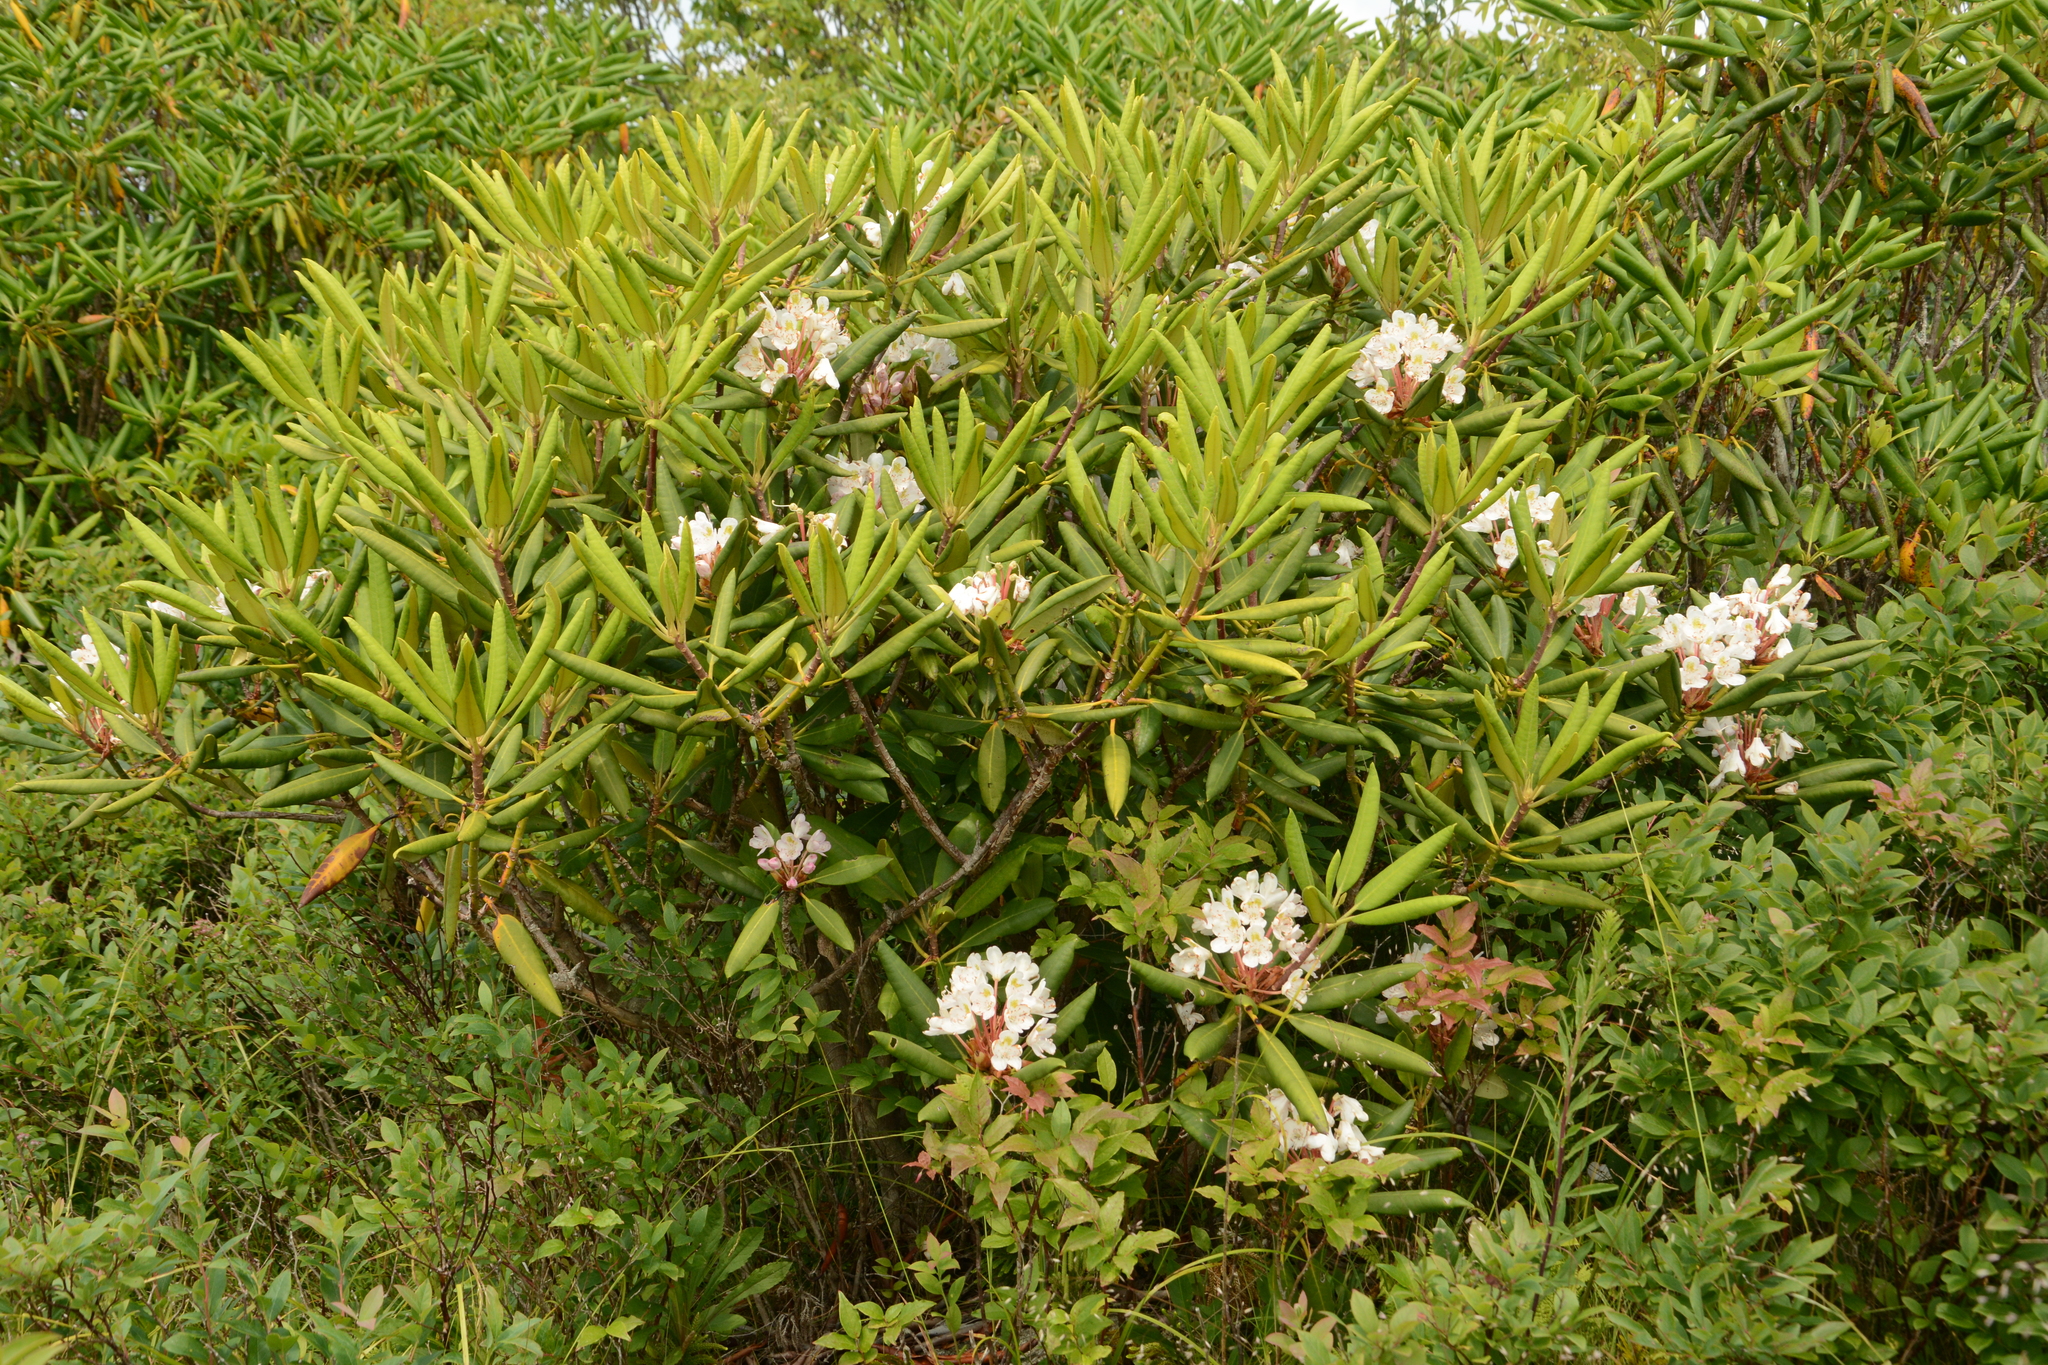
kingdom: Plantae
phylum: Tracheophyta
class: Magnoliopsida
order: Ericales
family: Ericaceae
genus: Rhododendron
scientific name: Rhododendron maximum
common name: Great rhododendron
